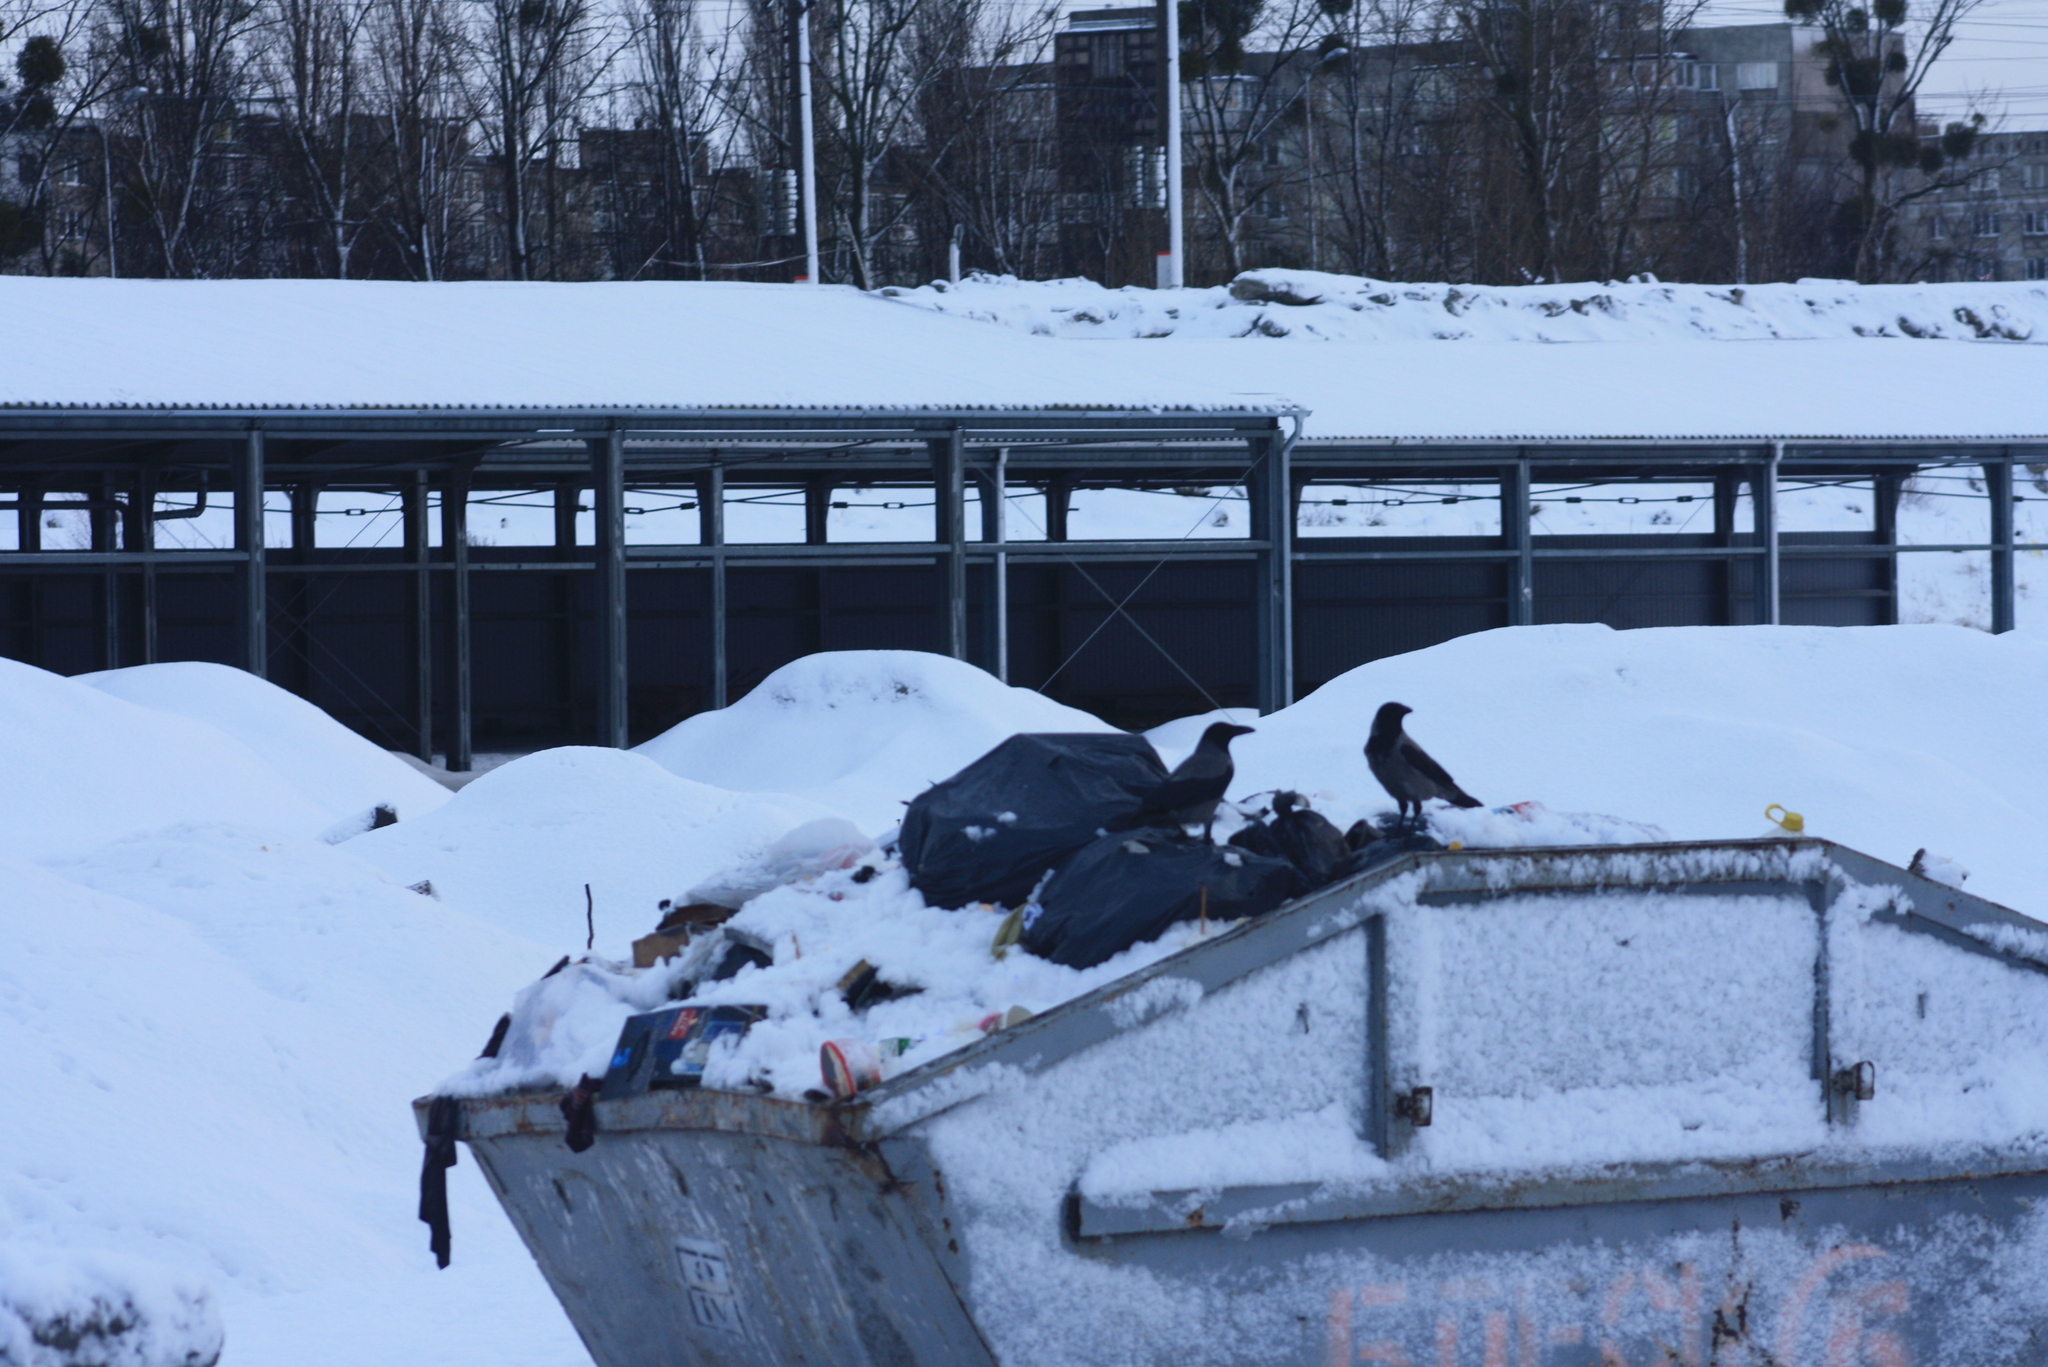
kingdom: Animalia
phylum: Chordata
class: Aves
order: Passeriformes
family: Corvidae
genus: Corvus
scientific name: Corvus cornix
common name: Hooded crow
